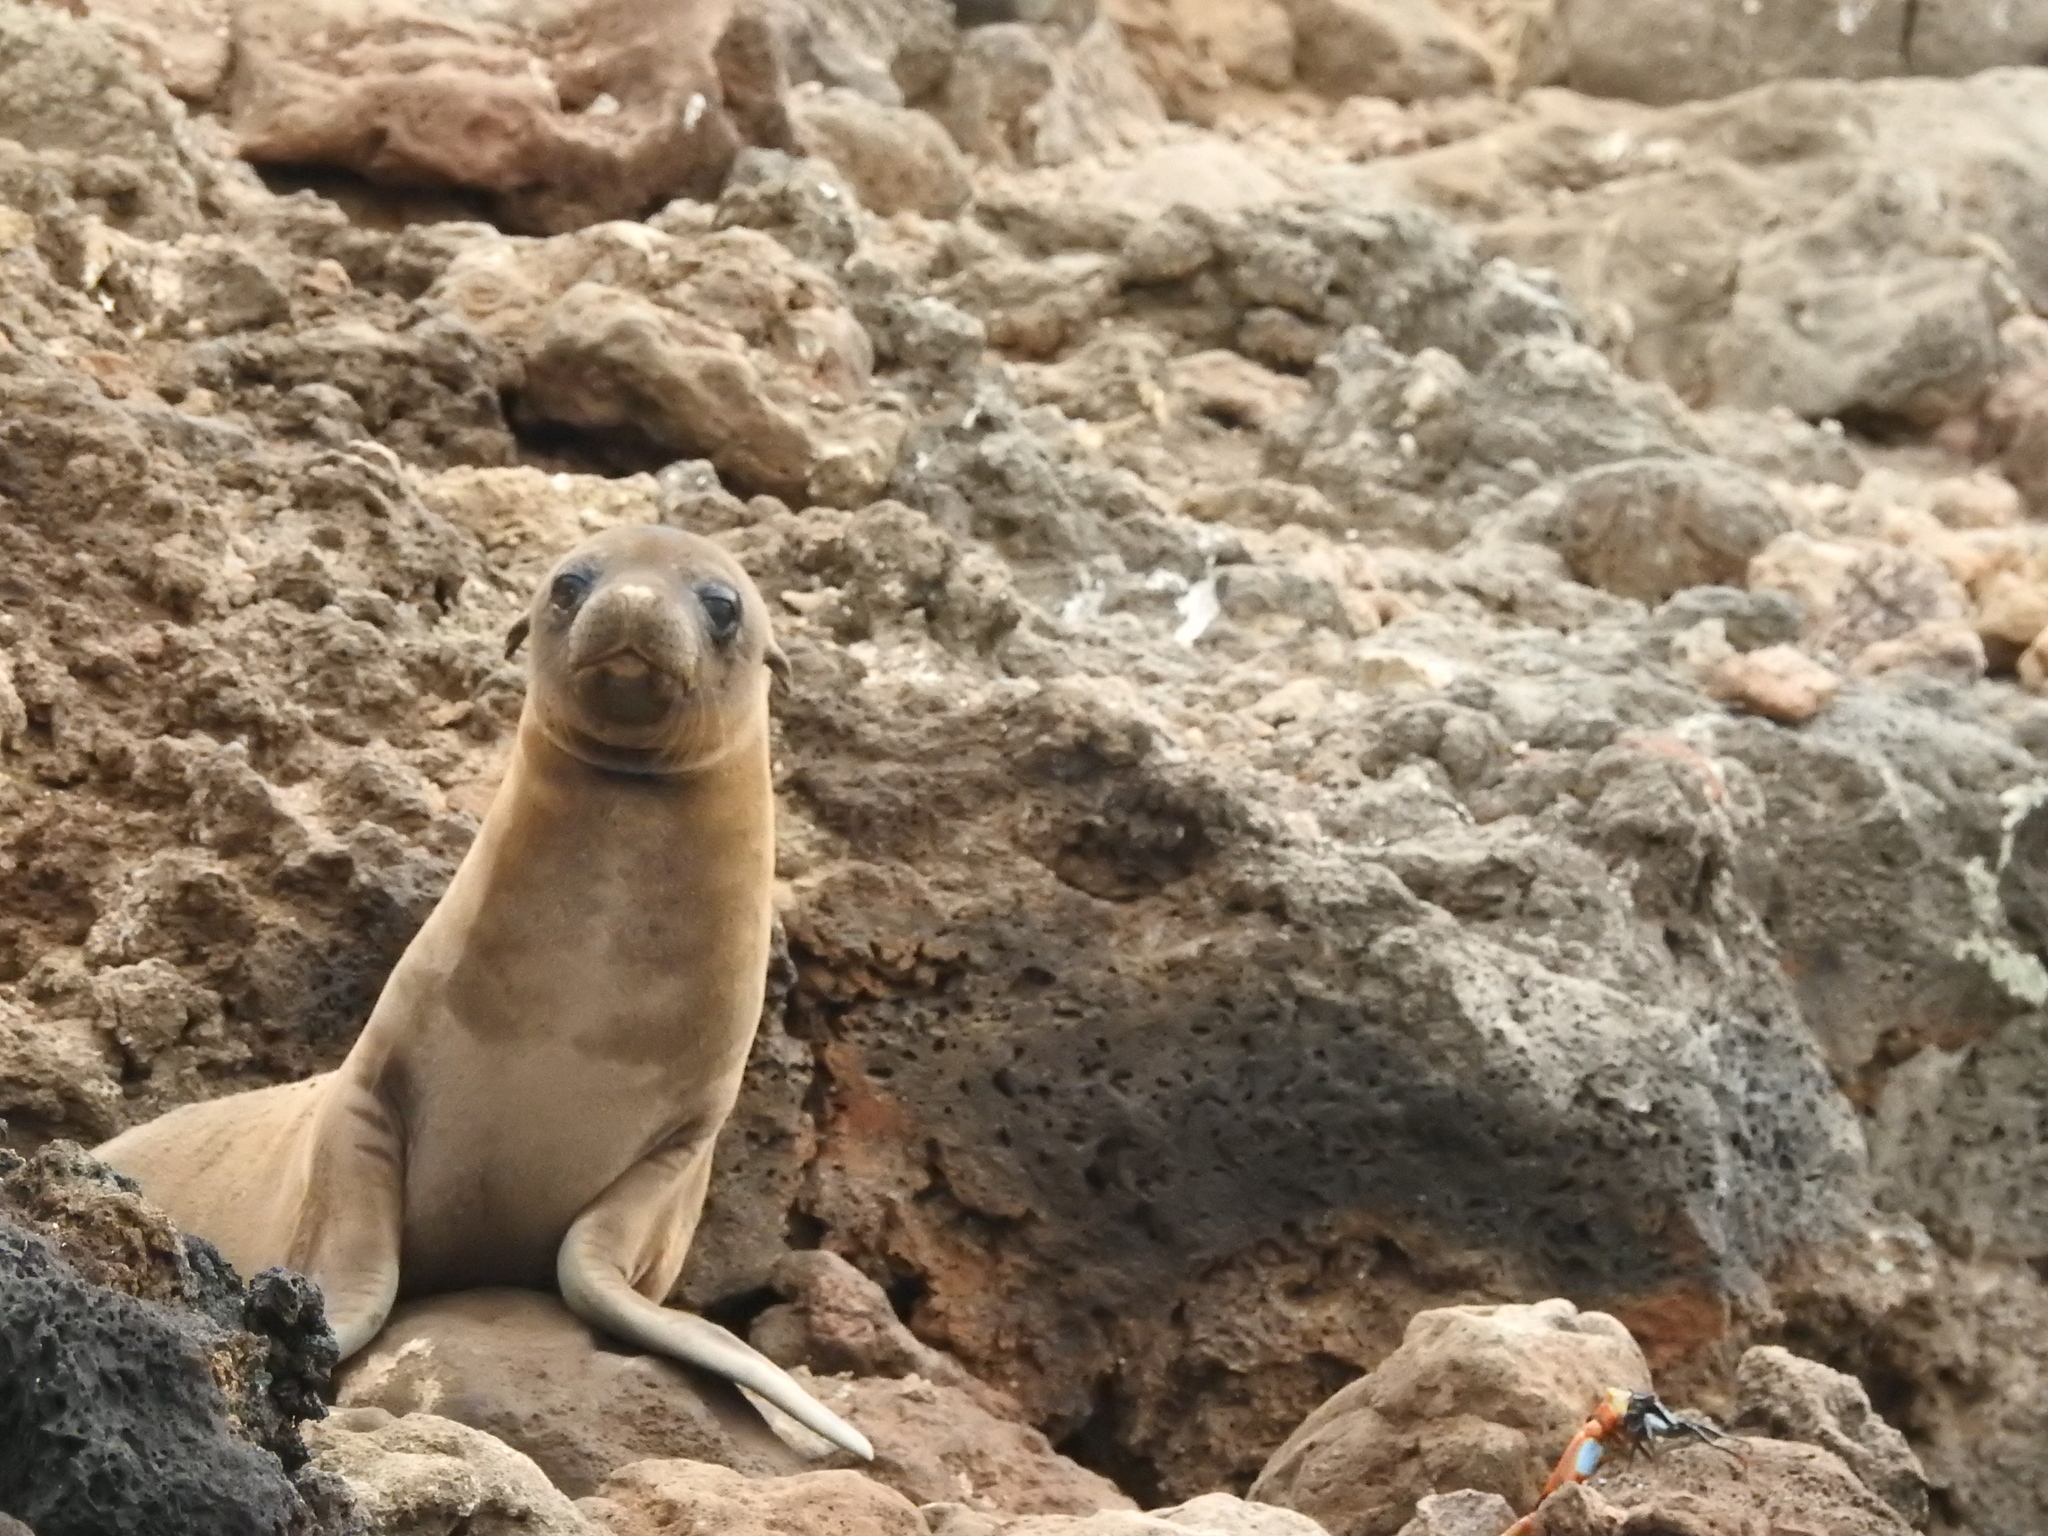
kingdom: Animalia
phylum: Chordata
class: Mammalia
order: Carnivora
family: Otariidae
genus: Zalophus
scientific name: Zalophus wollebaeki
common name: Galapagos sea lion
